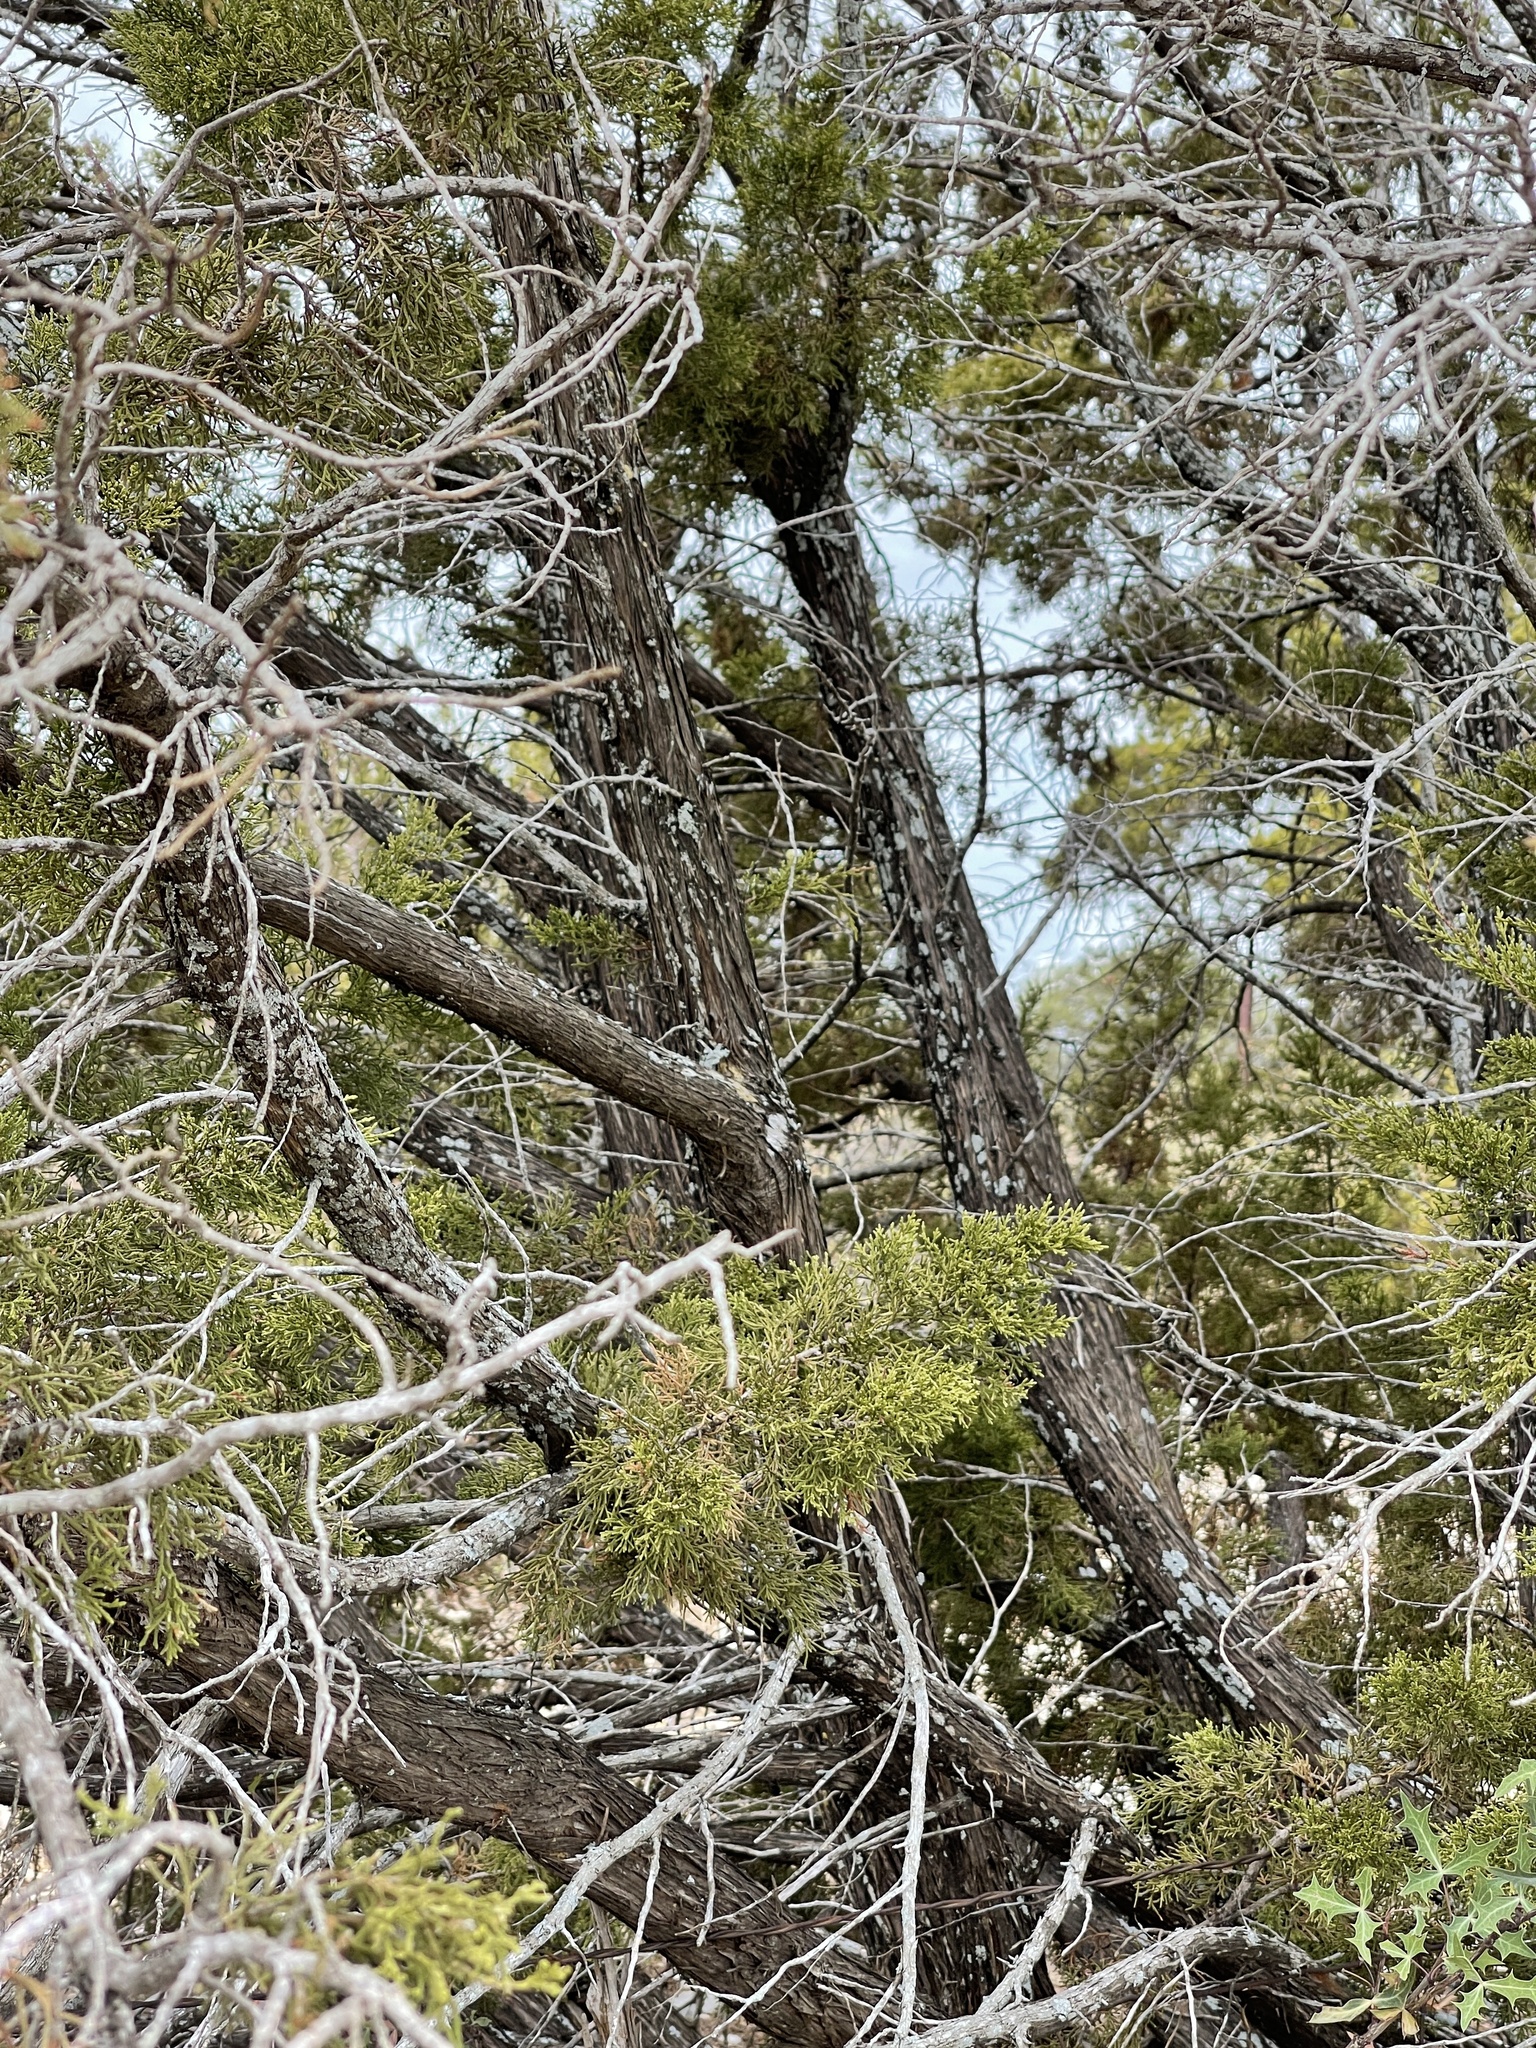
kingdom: Plantae
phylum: Tracheophyta
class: Pinopsida
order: Pinales
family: Cupressaceae
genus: Juniperus
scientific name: Juniperus ashei
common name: Mexican juniper
